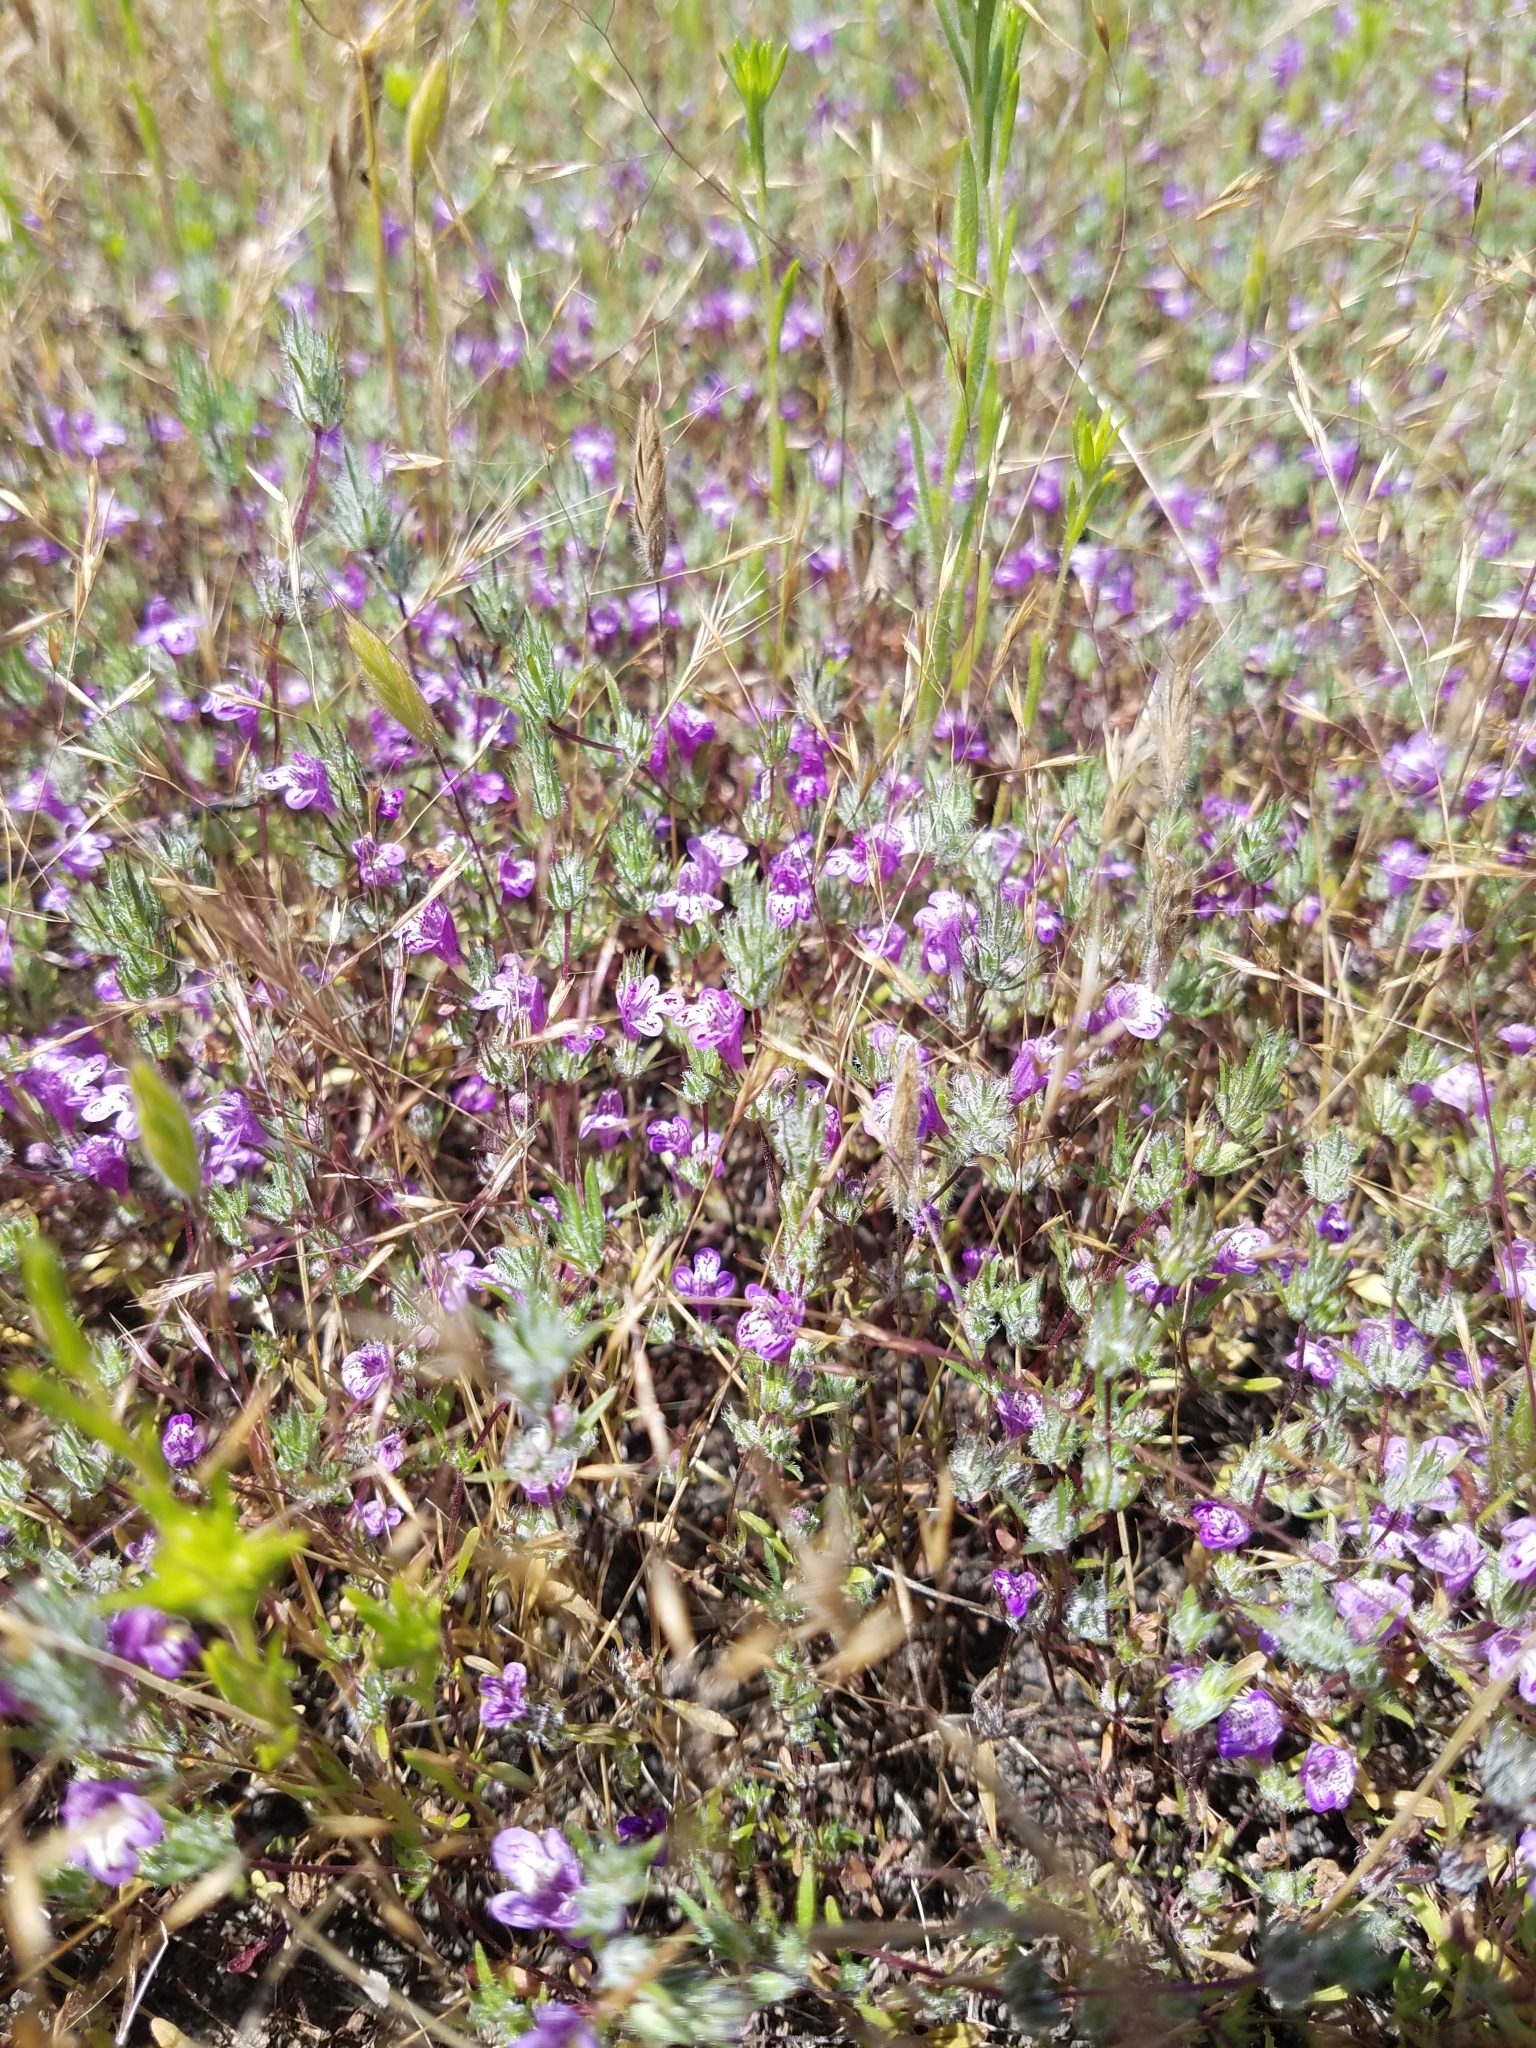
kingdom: Plantae
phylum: Tracheophyta
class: Magnoliopsida
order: Lamiales
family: Lamiaceae
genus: Pogogyne
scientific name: Pogogyne abramsii
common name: San diego mesa-mint
